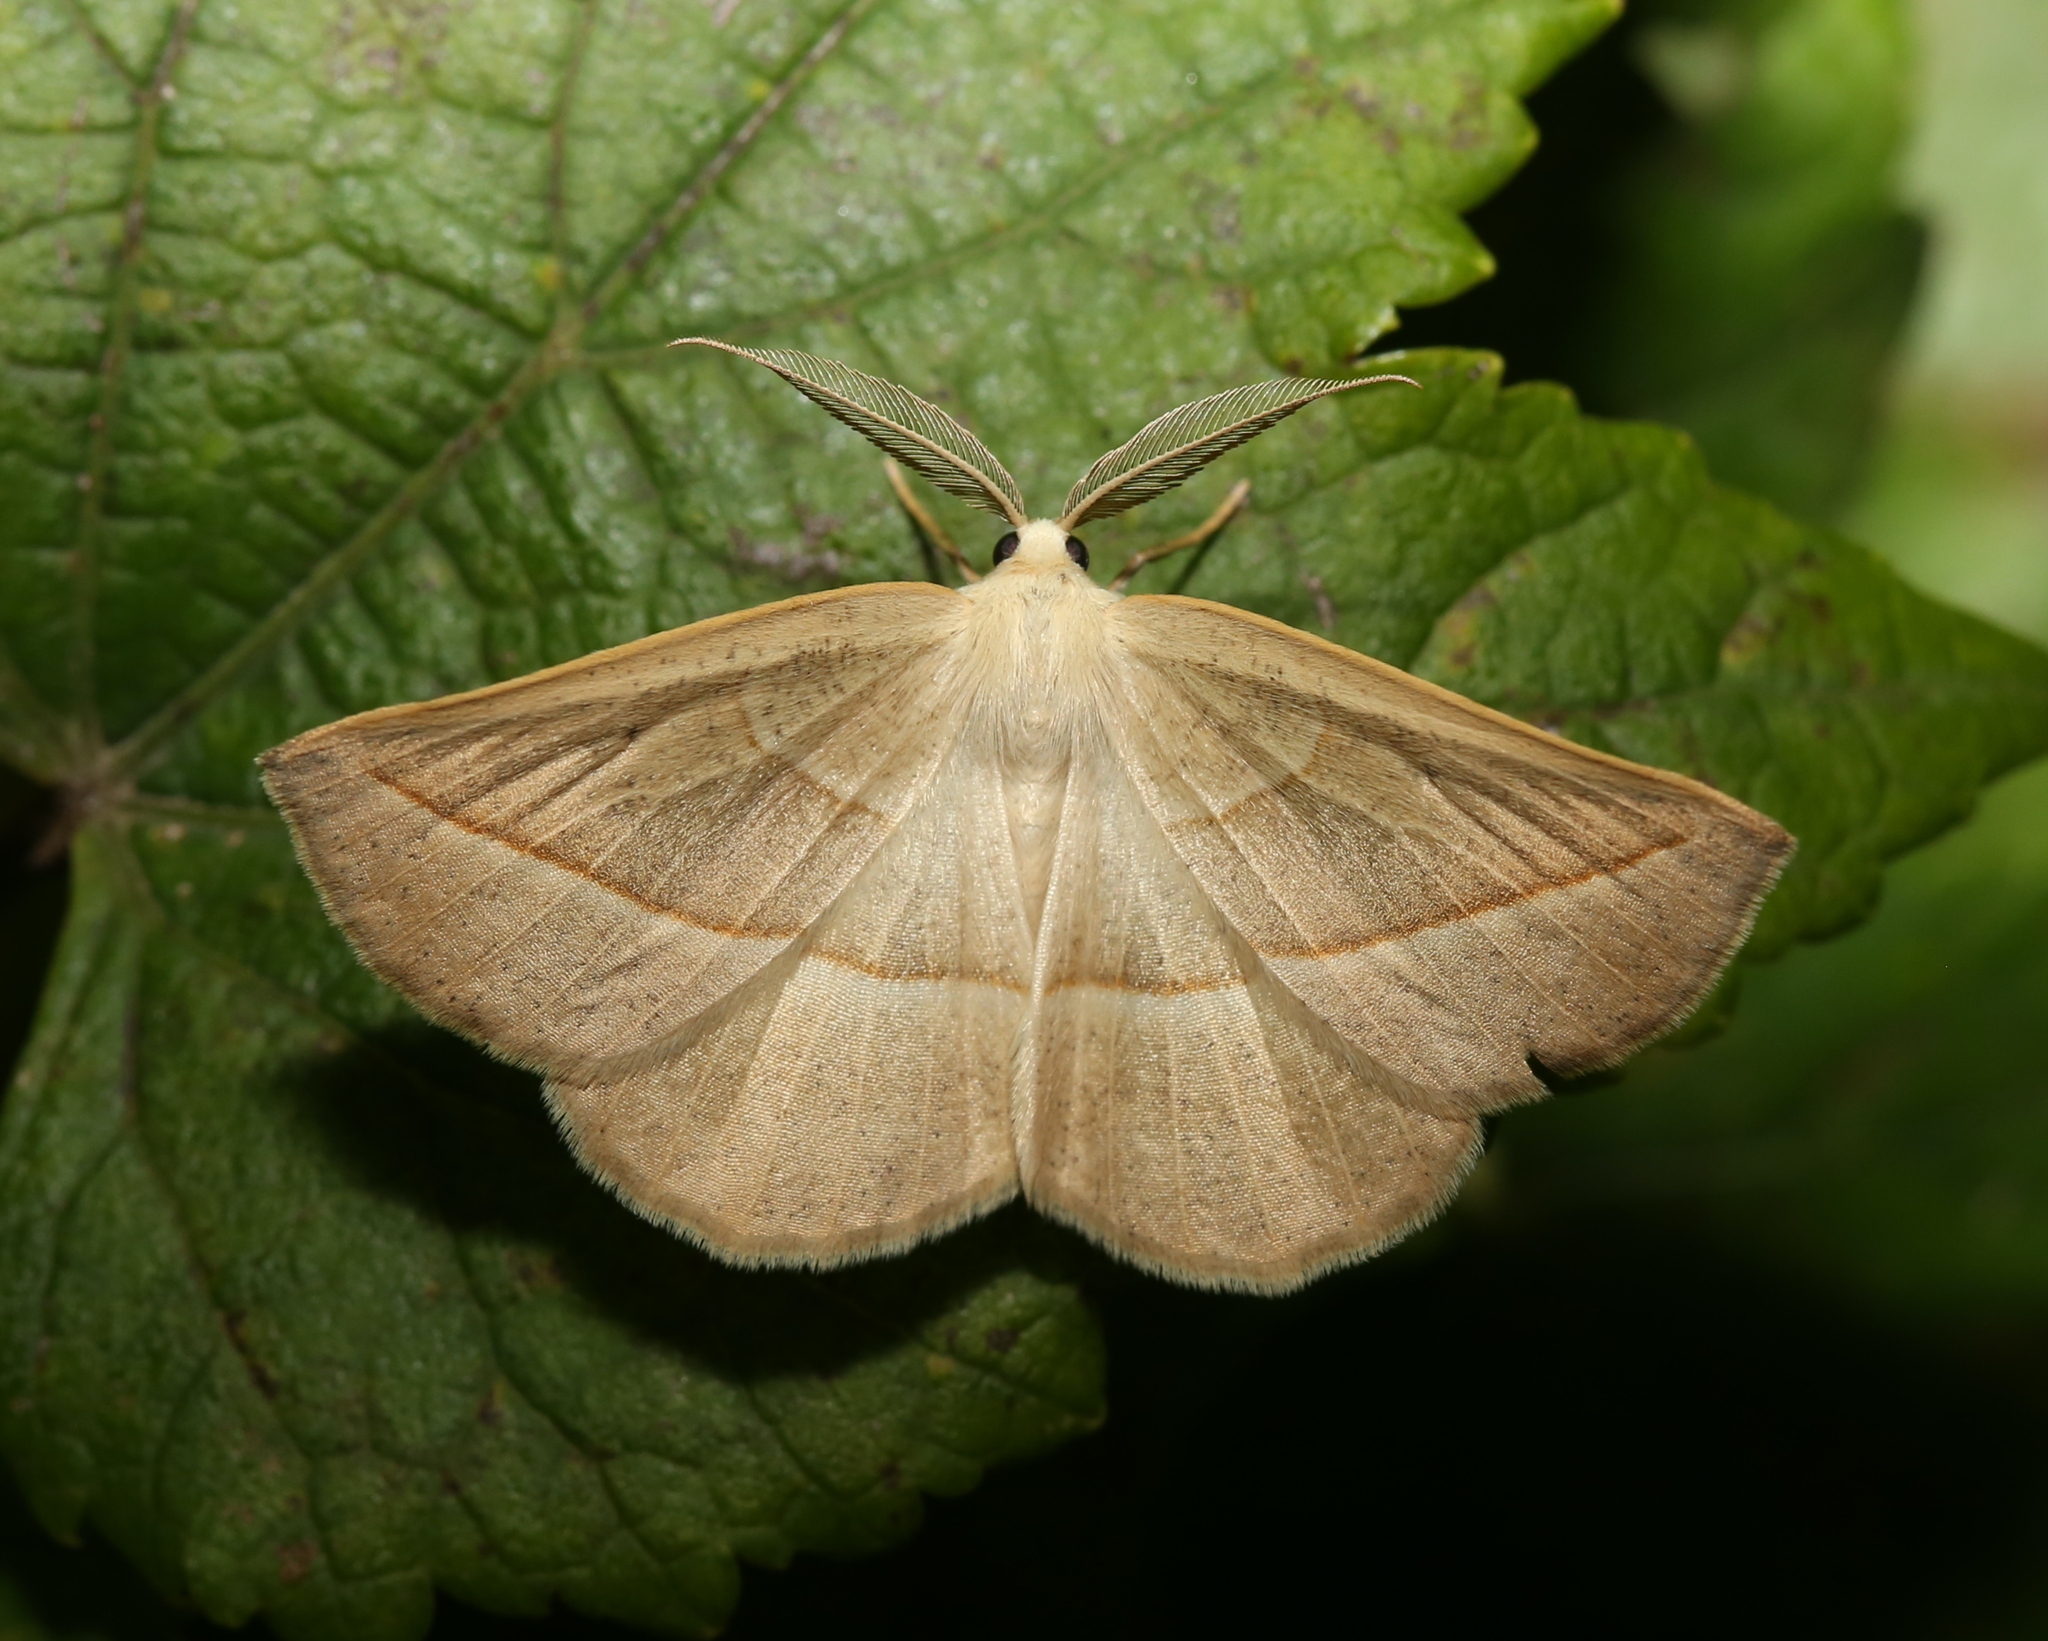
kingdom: Animalia
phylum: Arthropoda
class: Insecta
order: Lepidoptera
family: Geometridae
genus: Eusarca
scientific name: Eusarca confusaria
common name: Confused eusarca
